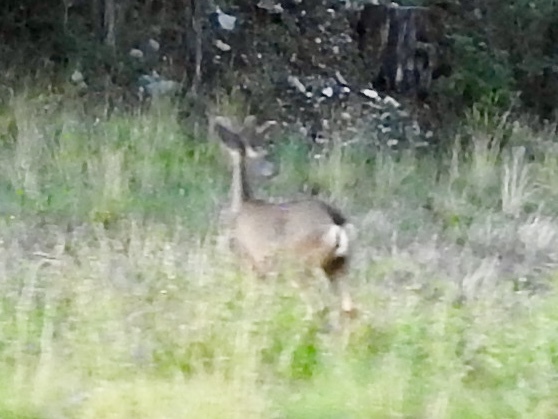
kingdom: Animalia
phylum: Chordata
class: Mammalia
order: Artiodactyla
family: Cervidae
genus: Odocoileus
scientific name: Odocoileus hemionus
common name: Mule deer
